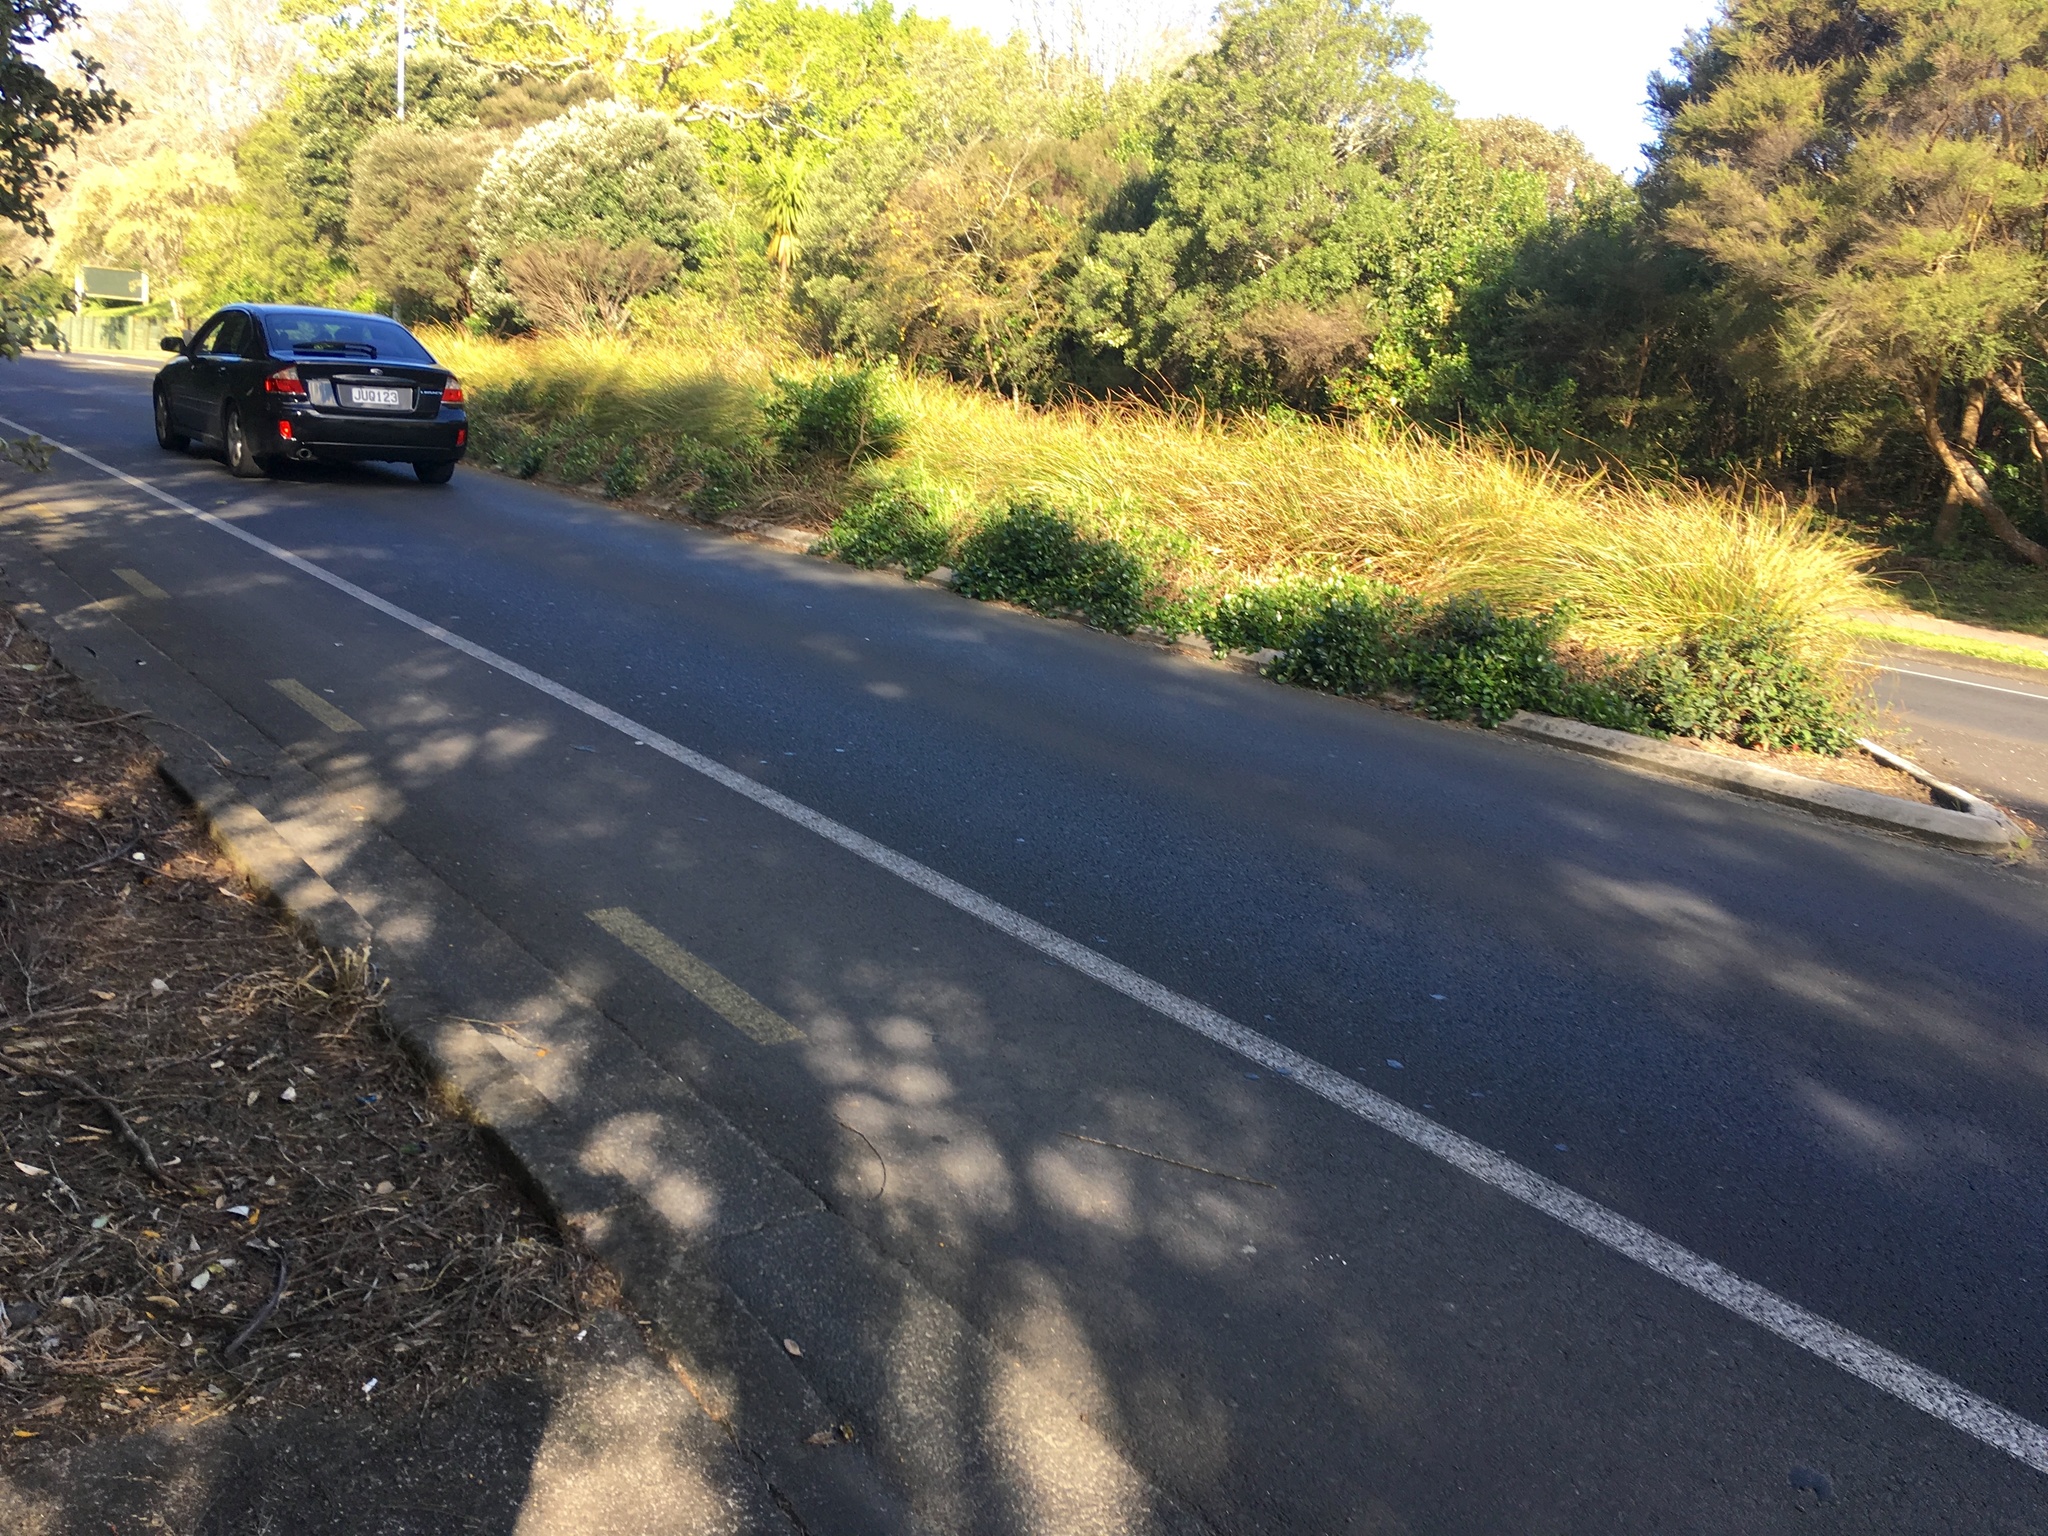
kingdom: Plantae
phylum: Tracheophyta
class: Magnoliopsida
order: Ericales
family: Primulaceae
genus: Myrsine
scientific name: Myrsine australis
